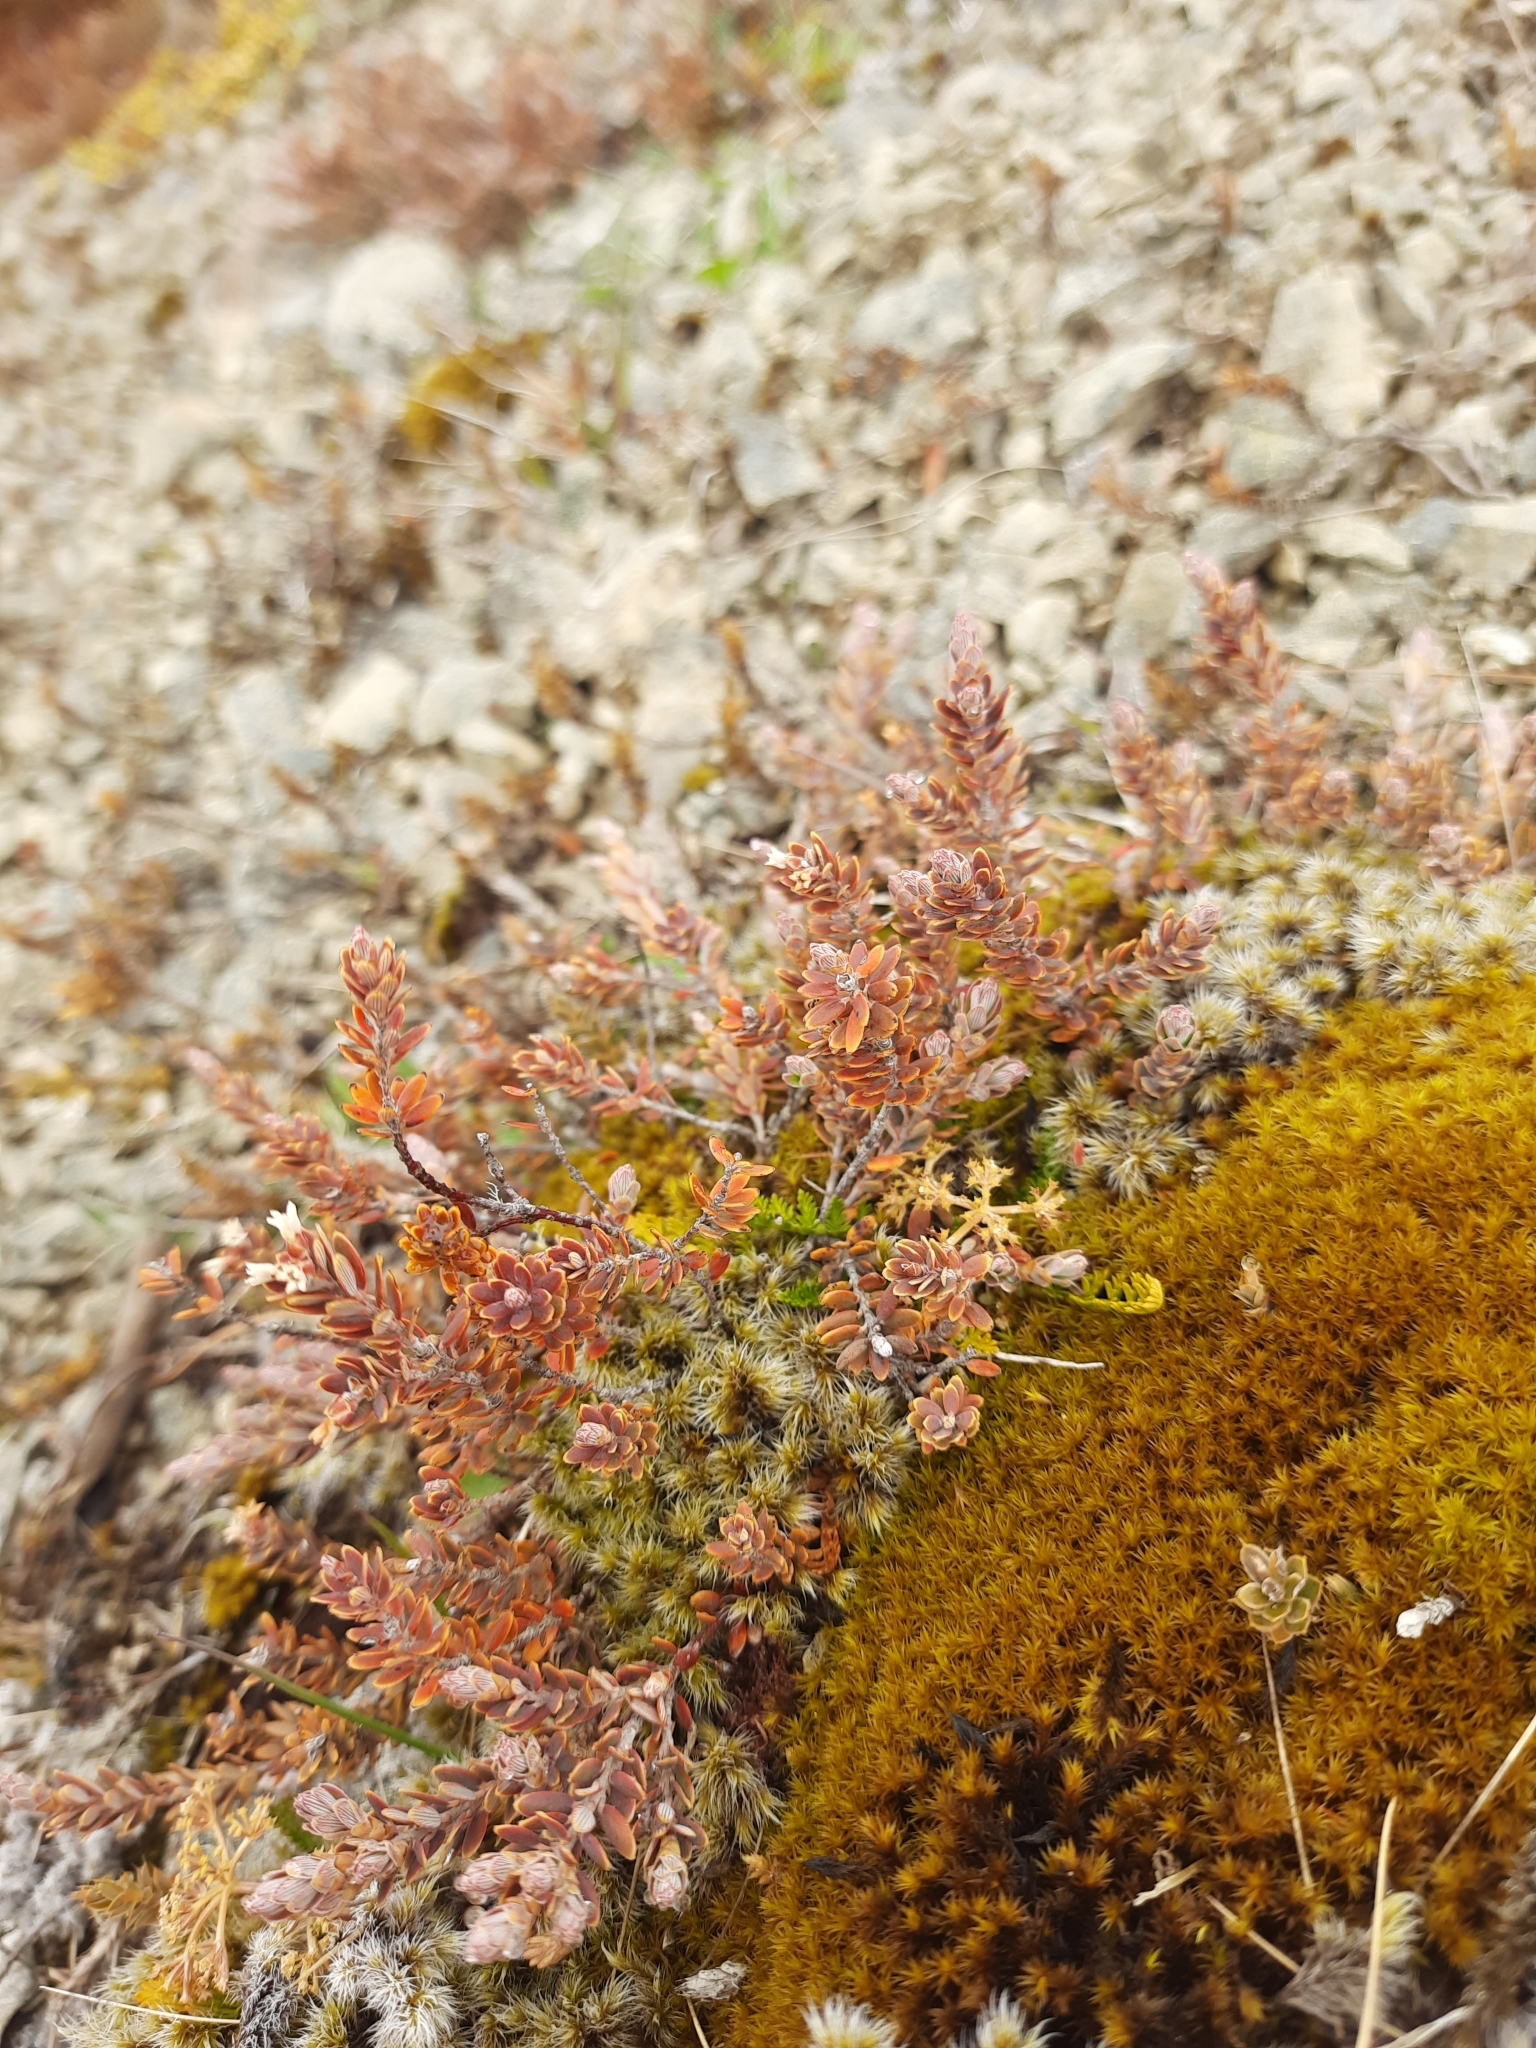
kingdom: Plantae
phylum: Tracheophyta
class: Magnoliopsida
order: Ericales
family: Ericaceae
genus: Acrothamnus
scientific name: Acrothamnus colensoi
